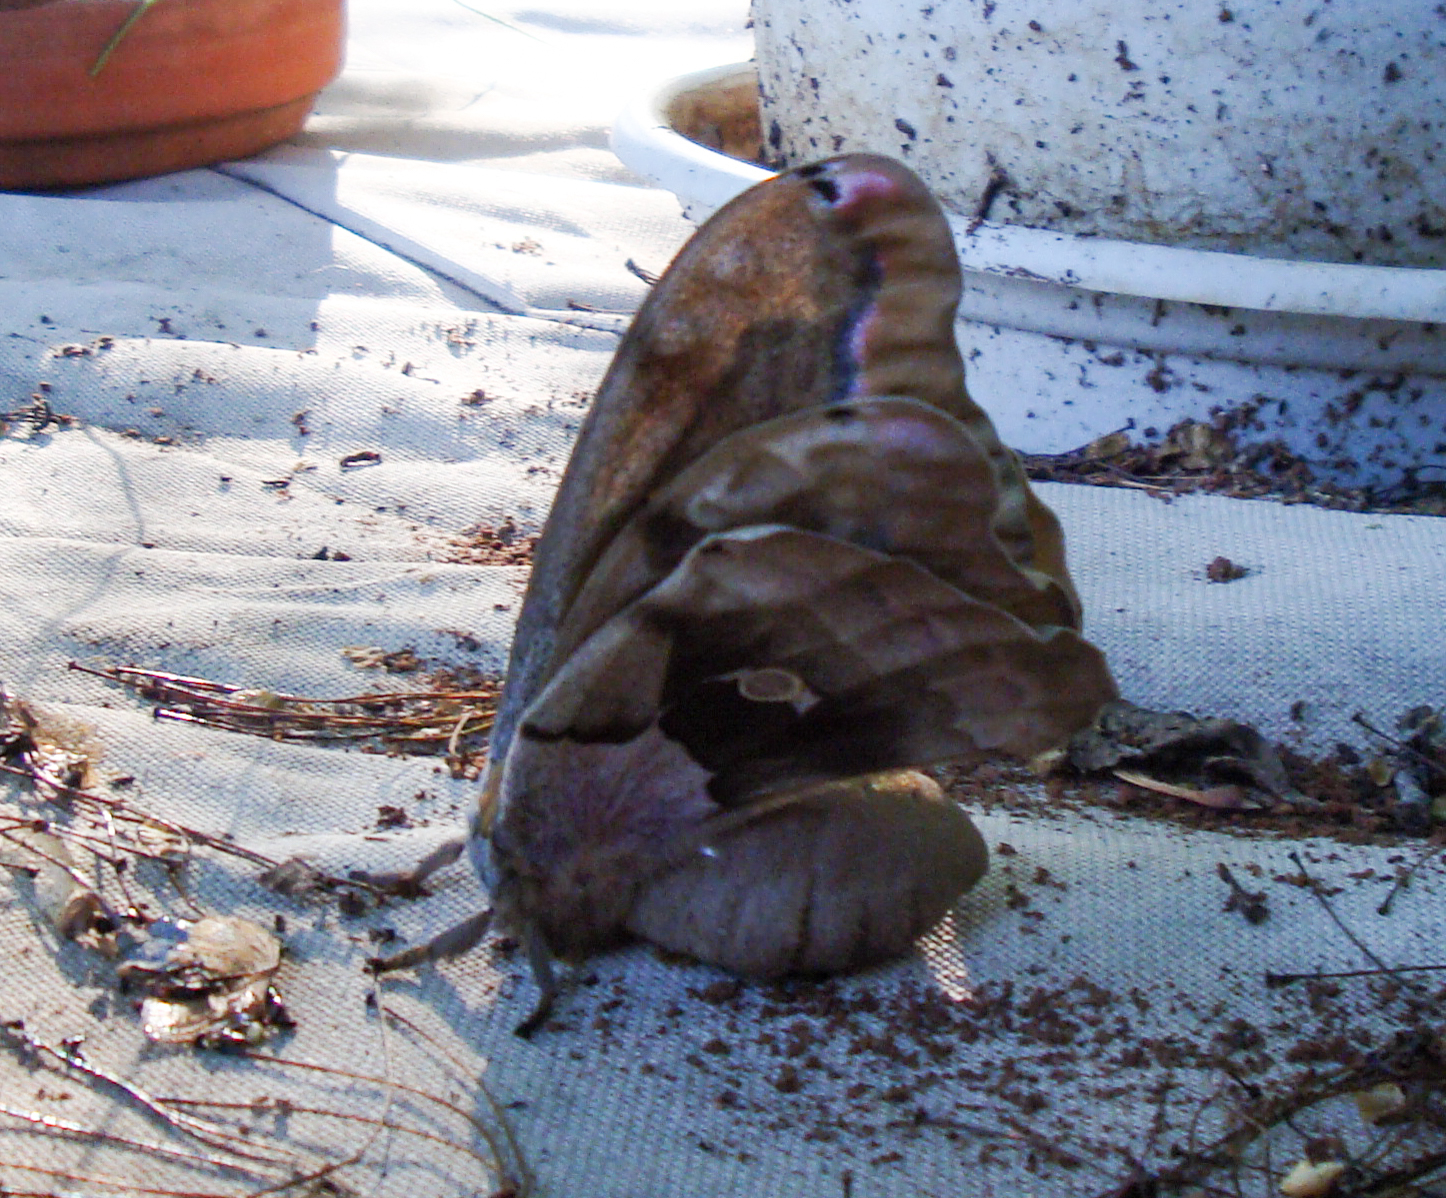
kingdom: Animalia
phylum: Arthropoda
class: Insecta
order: Lepidoptera
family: Saturniidae
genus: Antheraea
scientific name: Antheraea polyphemus
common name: Polyphemus moth
